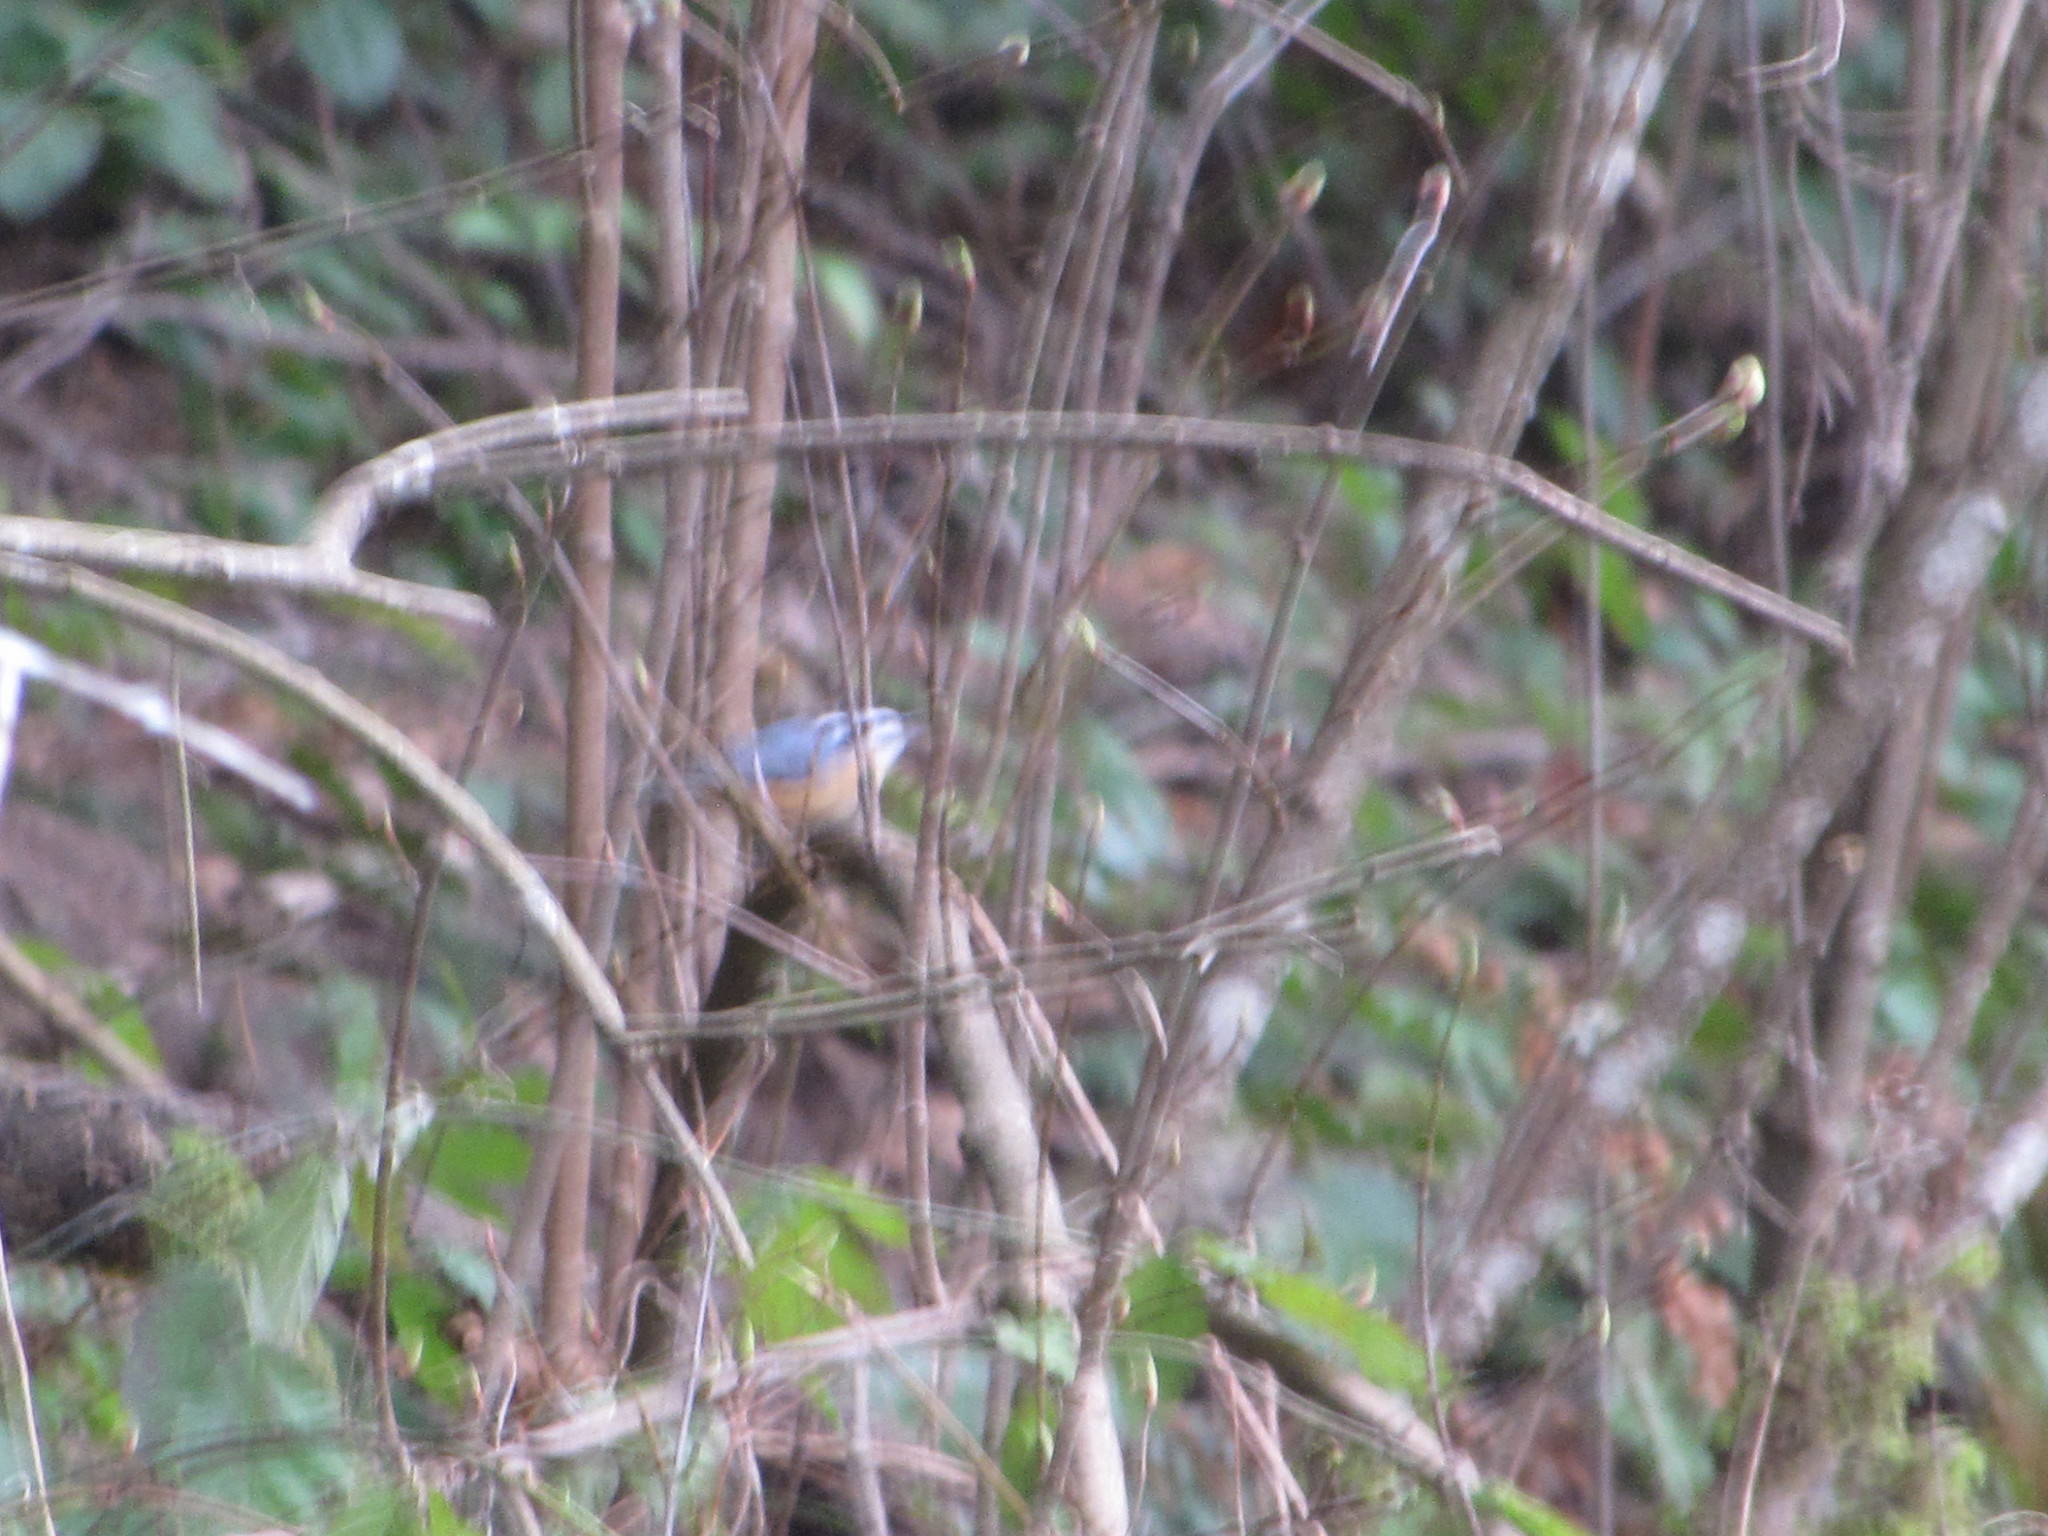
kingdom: Animalia
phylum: Chordata
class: Aves
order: Passeriformes
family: Sittidae
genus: Sitta
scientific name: Sitta canadensis
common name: Red-breasted nuthatch
